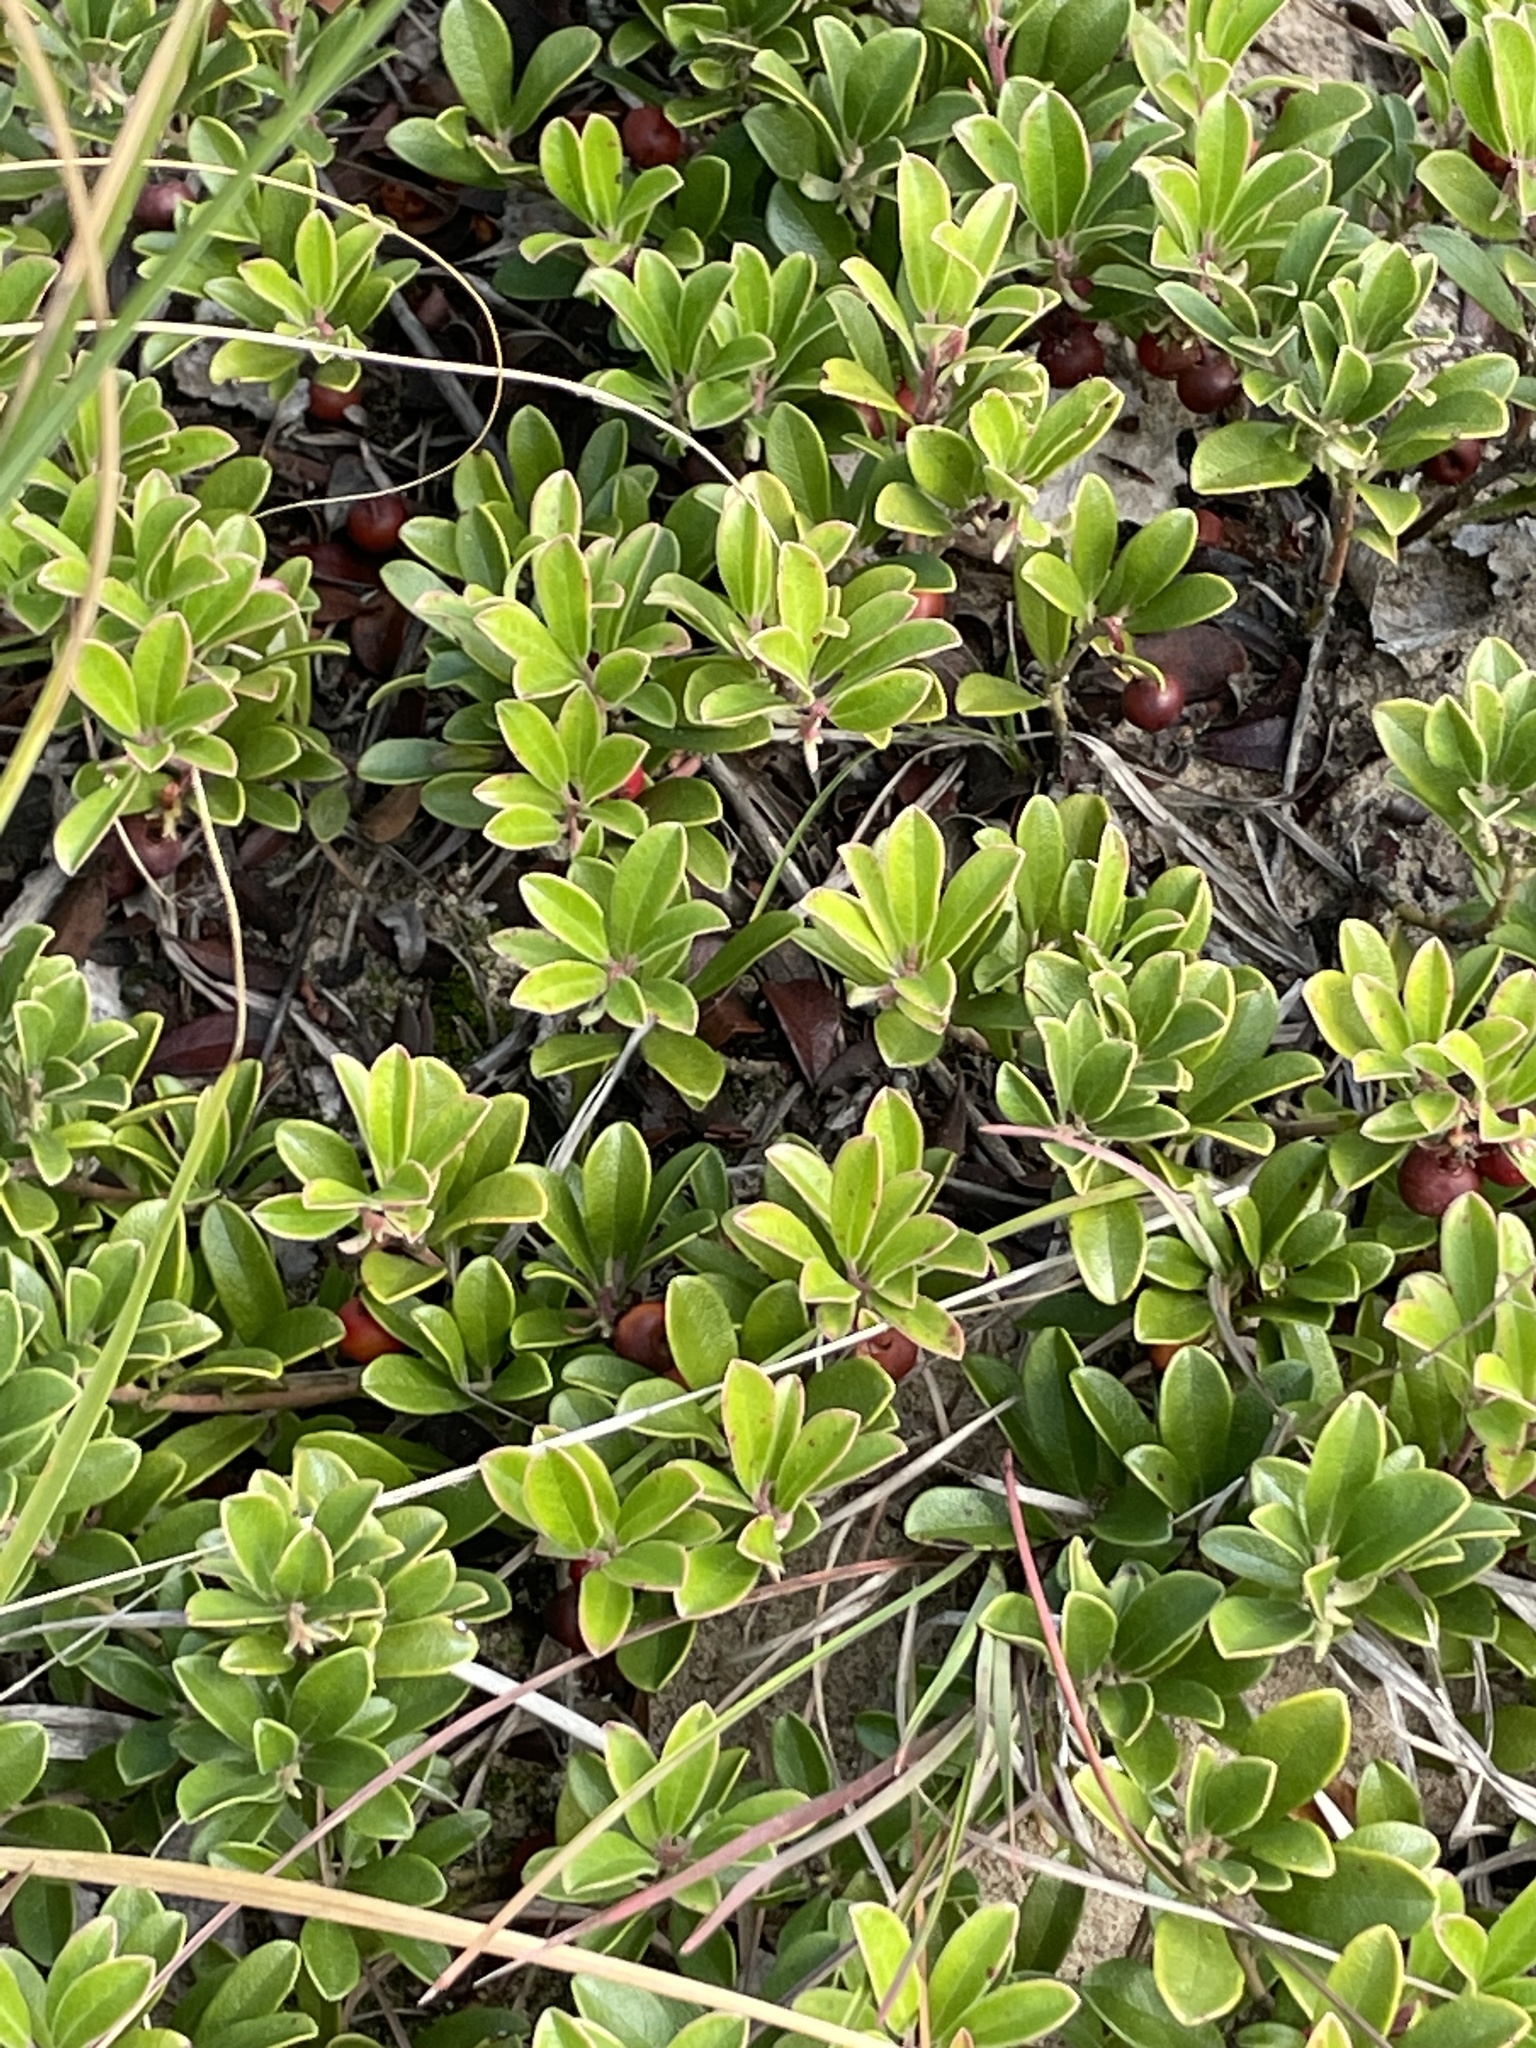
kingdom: Plantae
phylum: Tracheophyta
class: Magnoliopsida
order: Ericales
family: Ericaceae
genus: Arctostaphylos
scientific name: Arctostaphylos uva-ursi
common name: Bearberry
